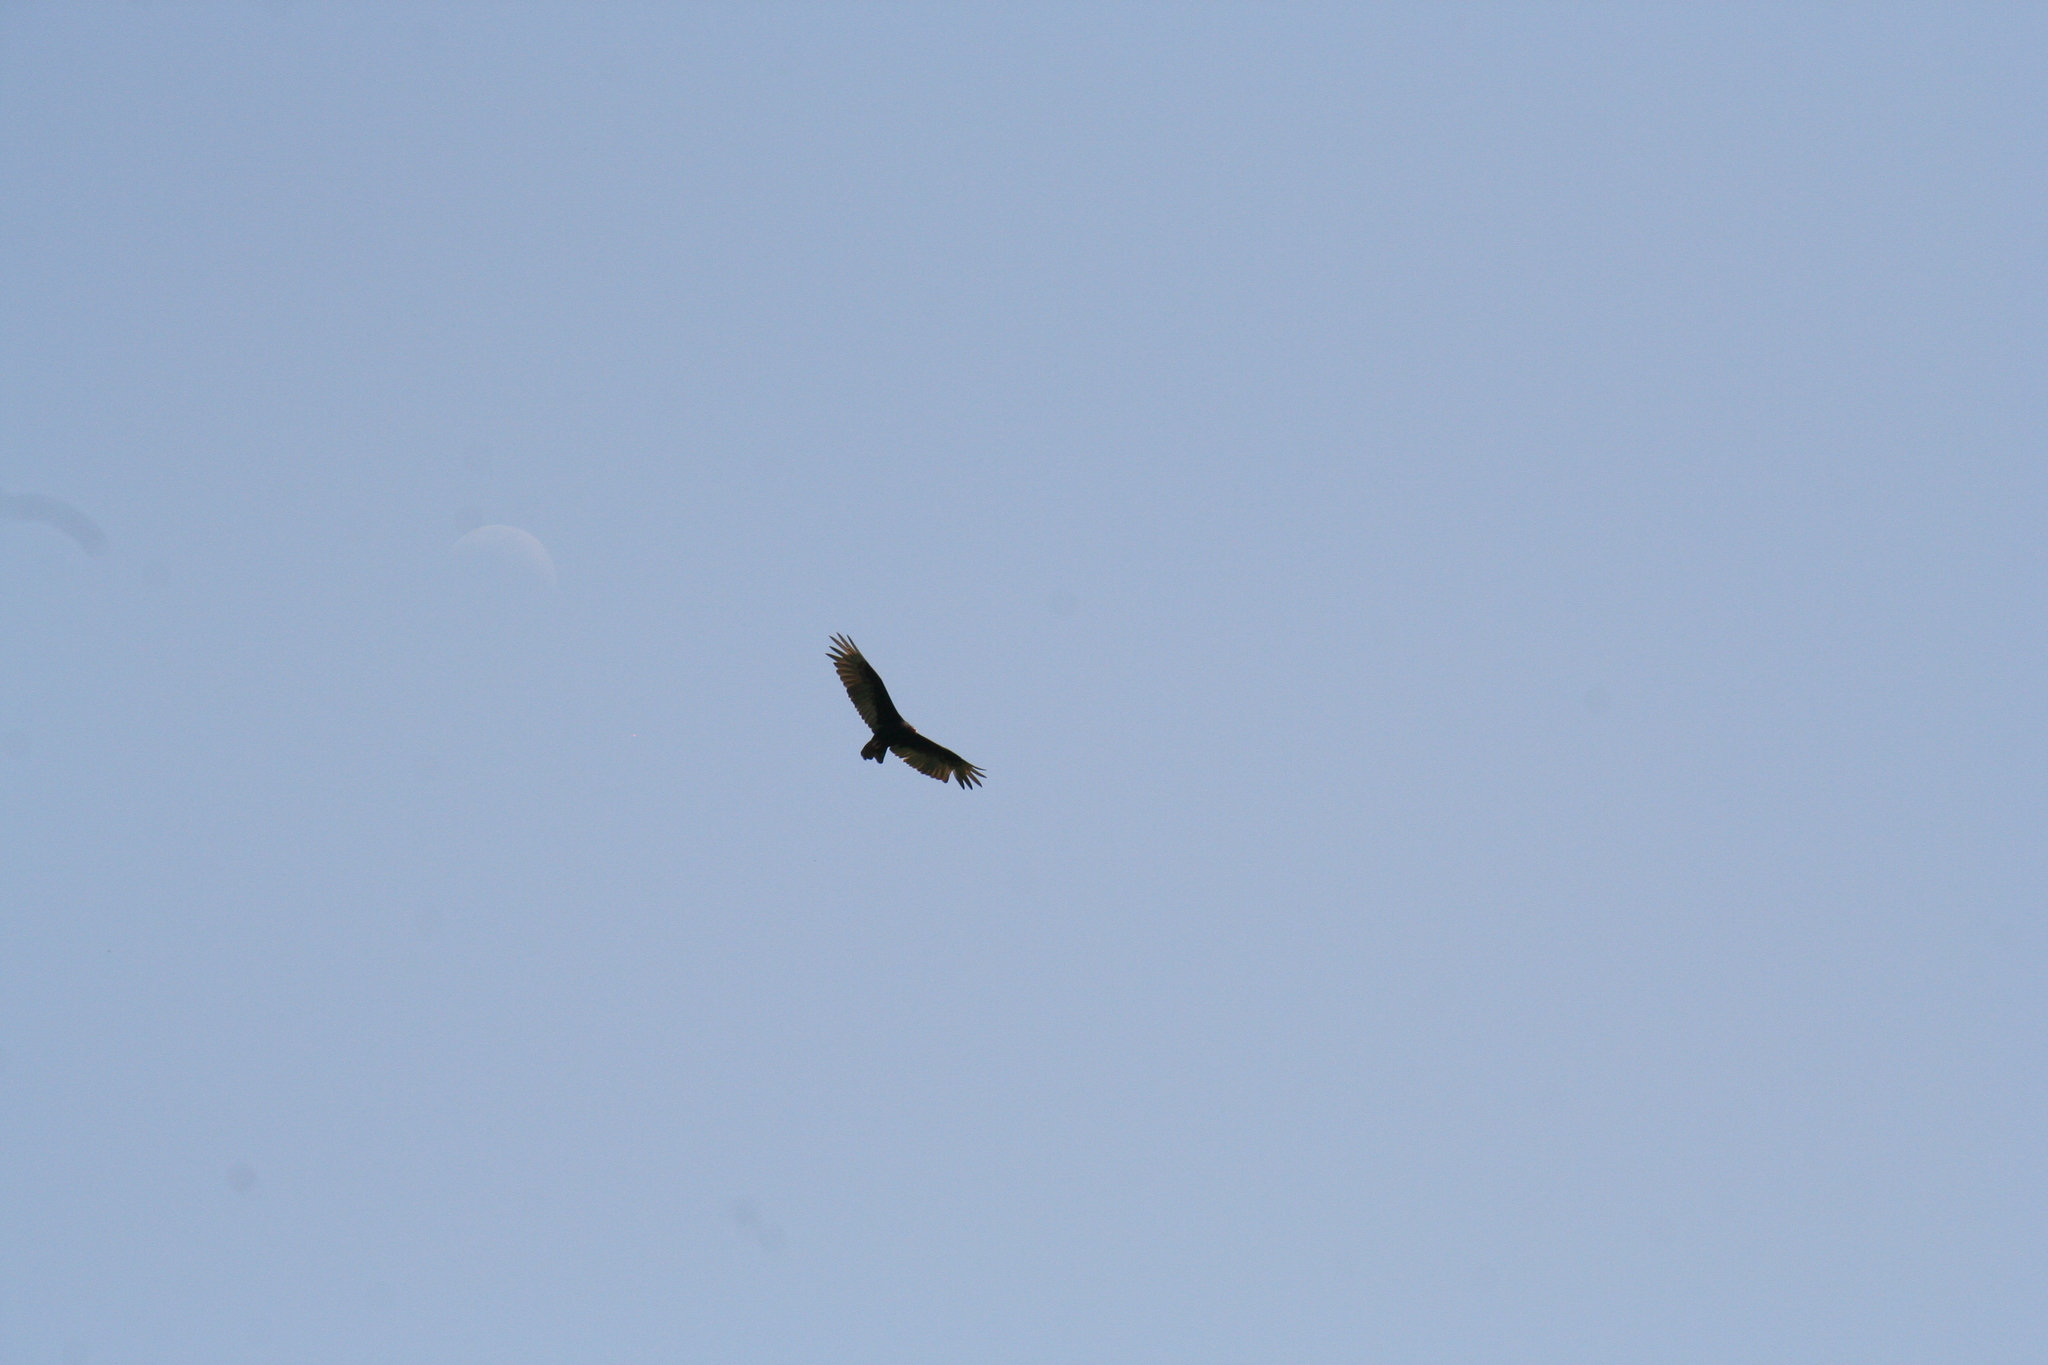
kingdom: Animalia
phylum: Chordata
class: Aves
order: Accipitriformes
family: Cathartidae
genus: Cathartes
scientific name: Cathartes aura
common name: Turkey vulture
